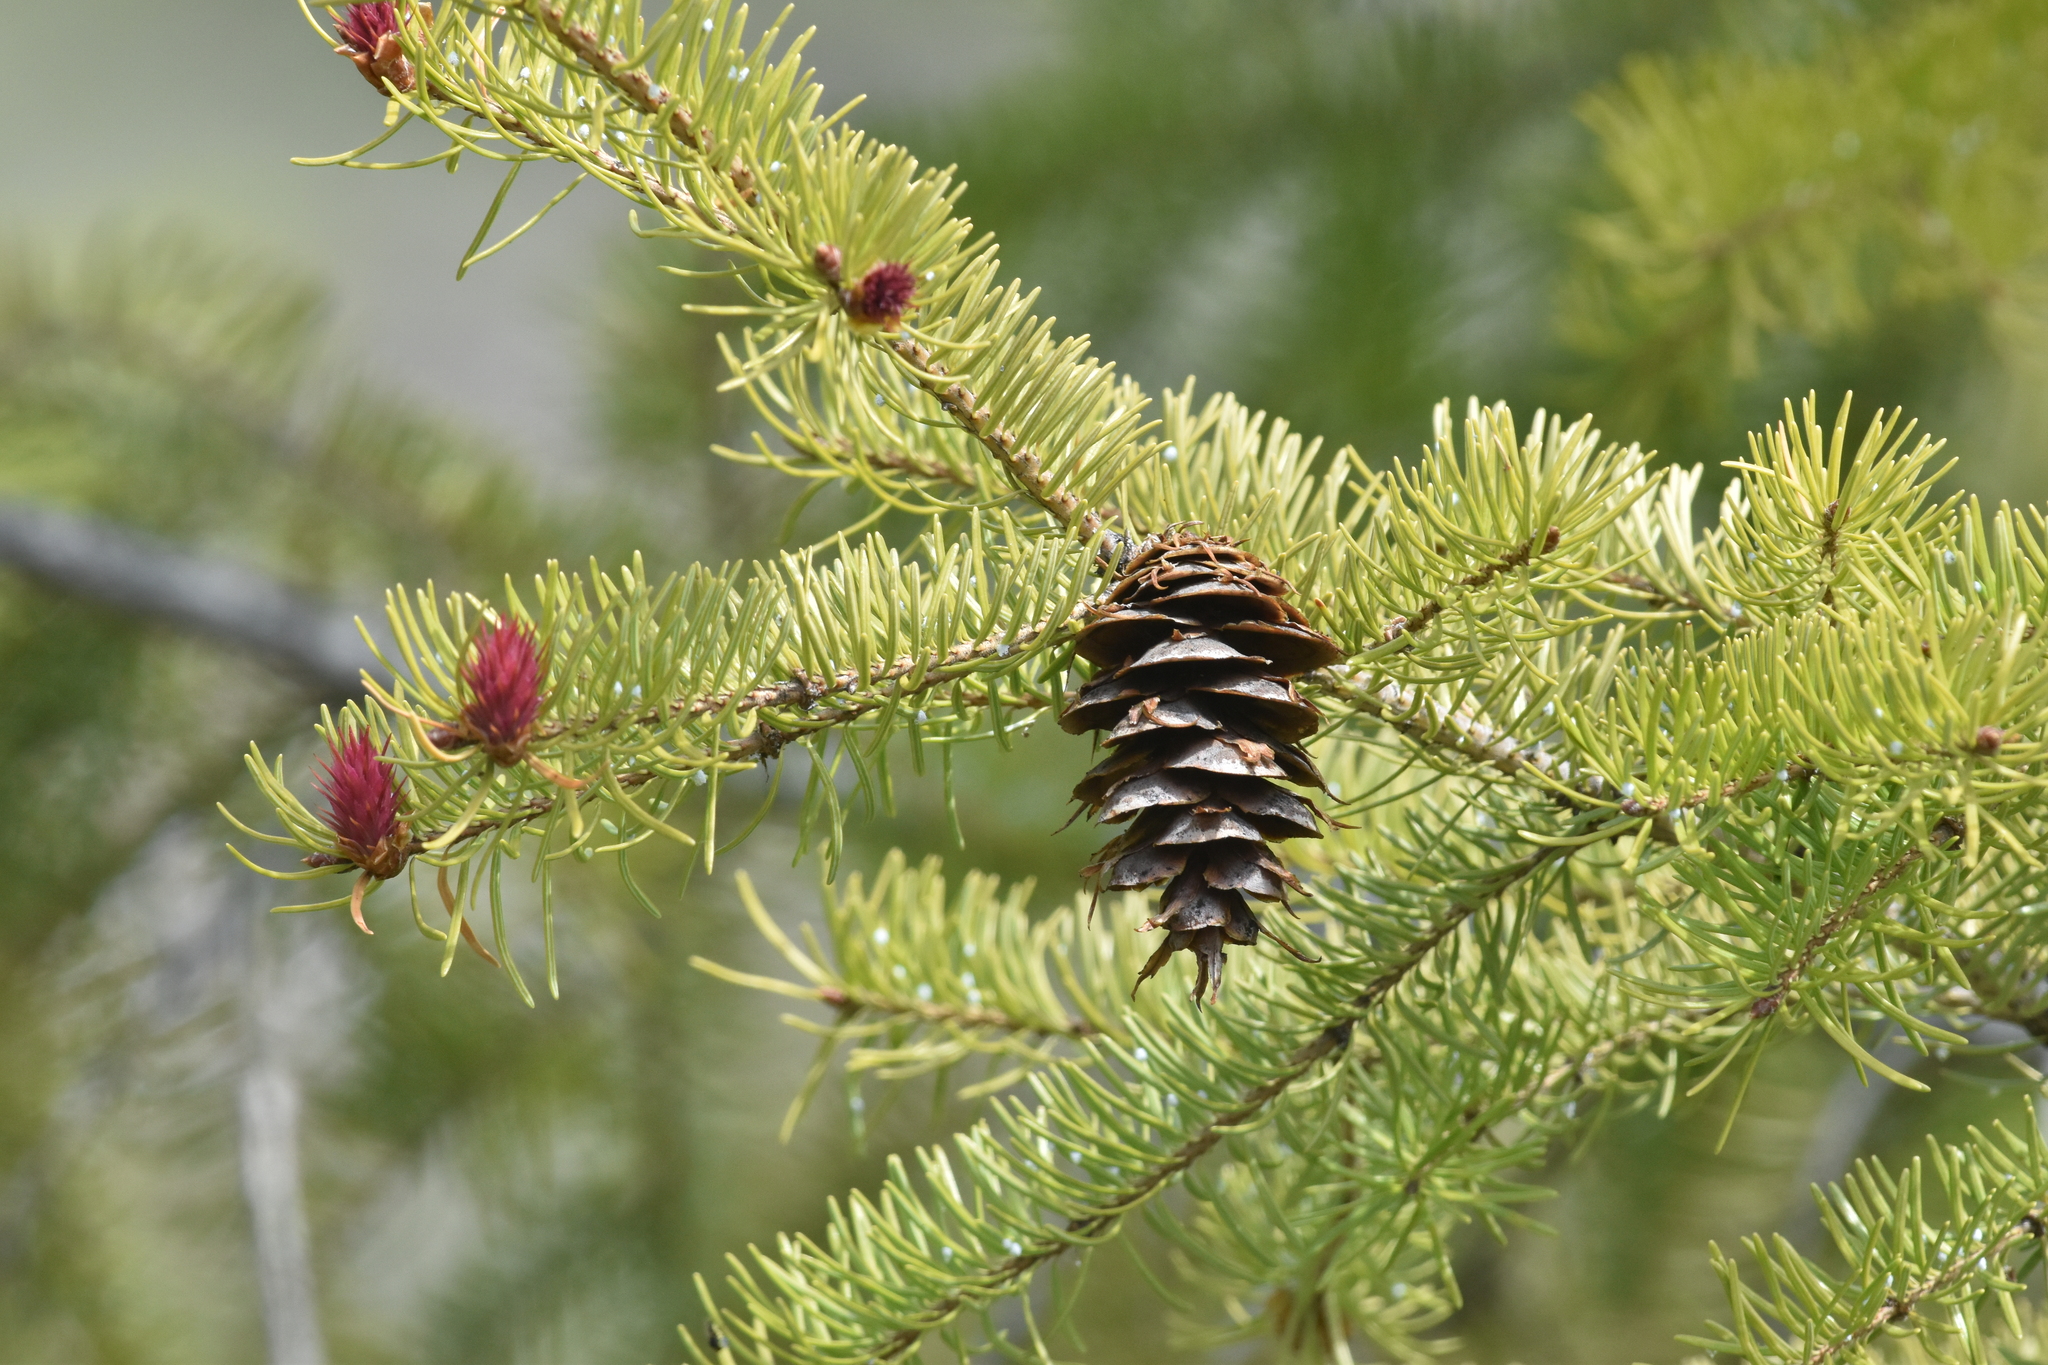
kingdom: Plantae
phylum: Tracheophyta
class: Pinopsida
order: Pinales
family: Pinaceae
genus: Pseudotsuga
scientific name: Pseudotsuga menziesii
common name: Douglas fir
